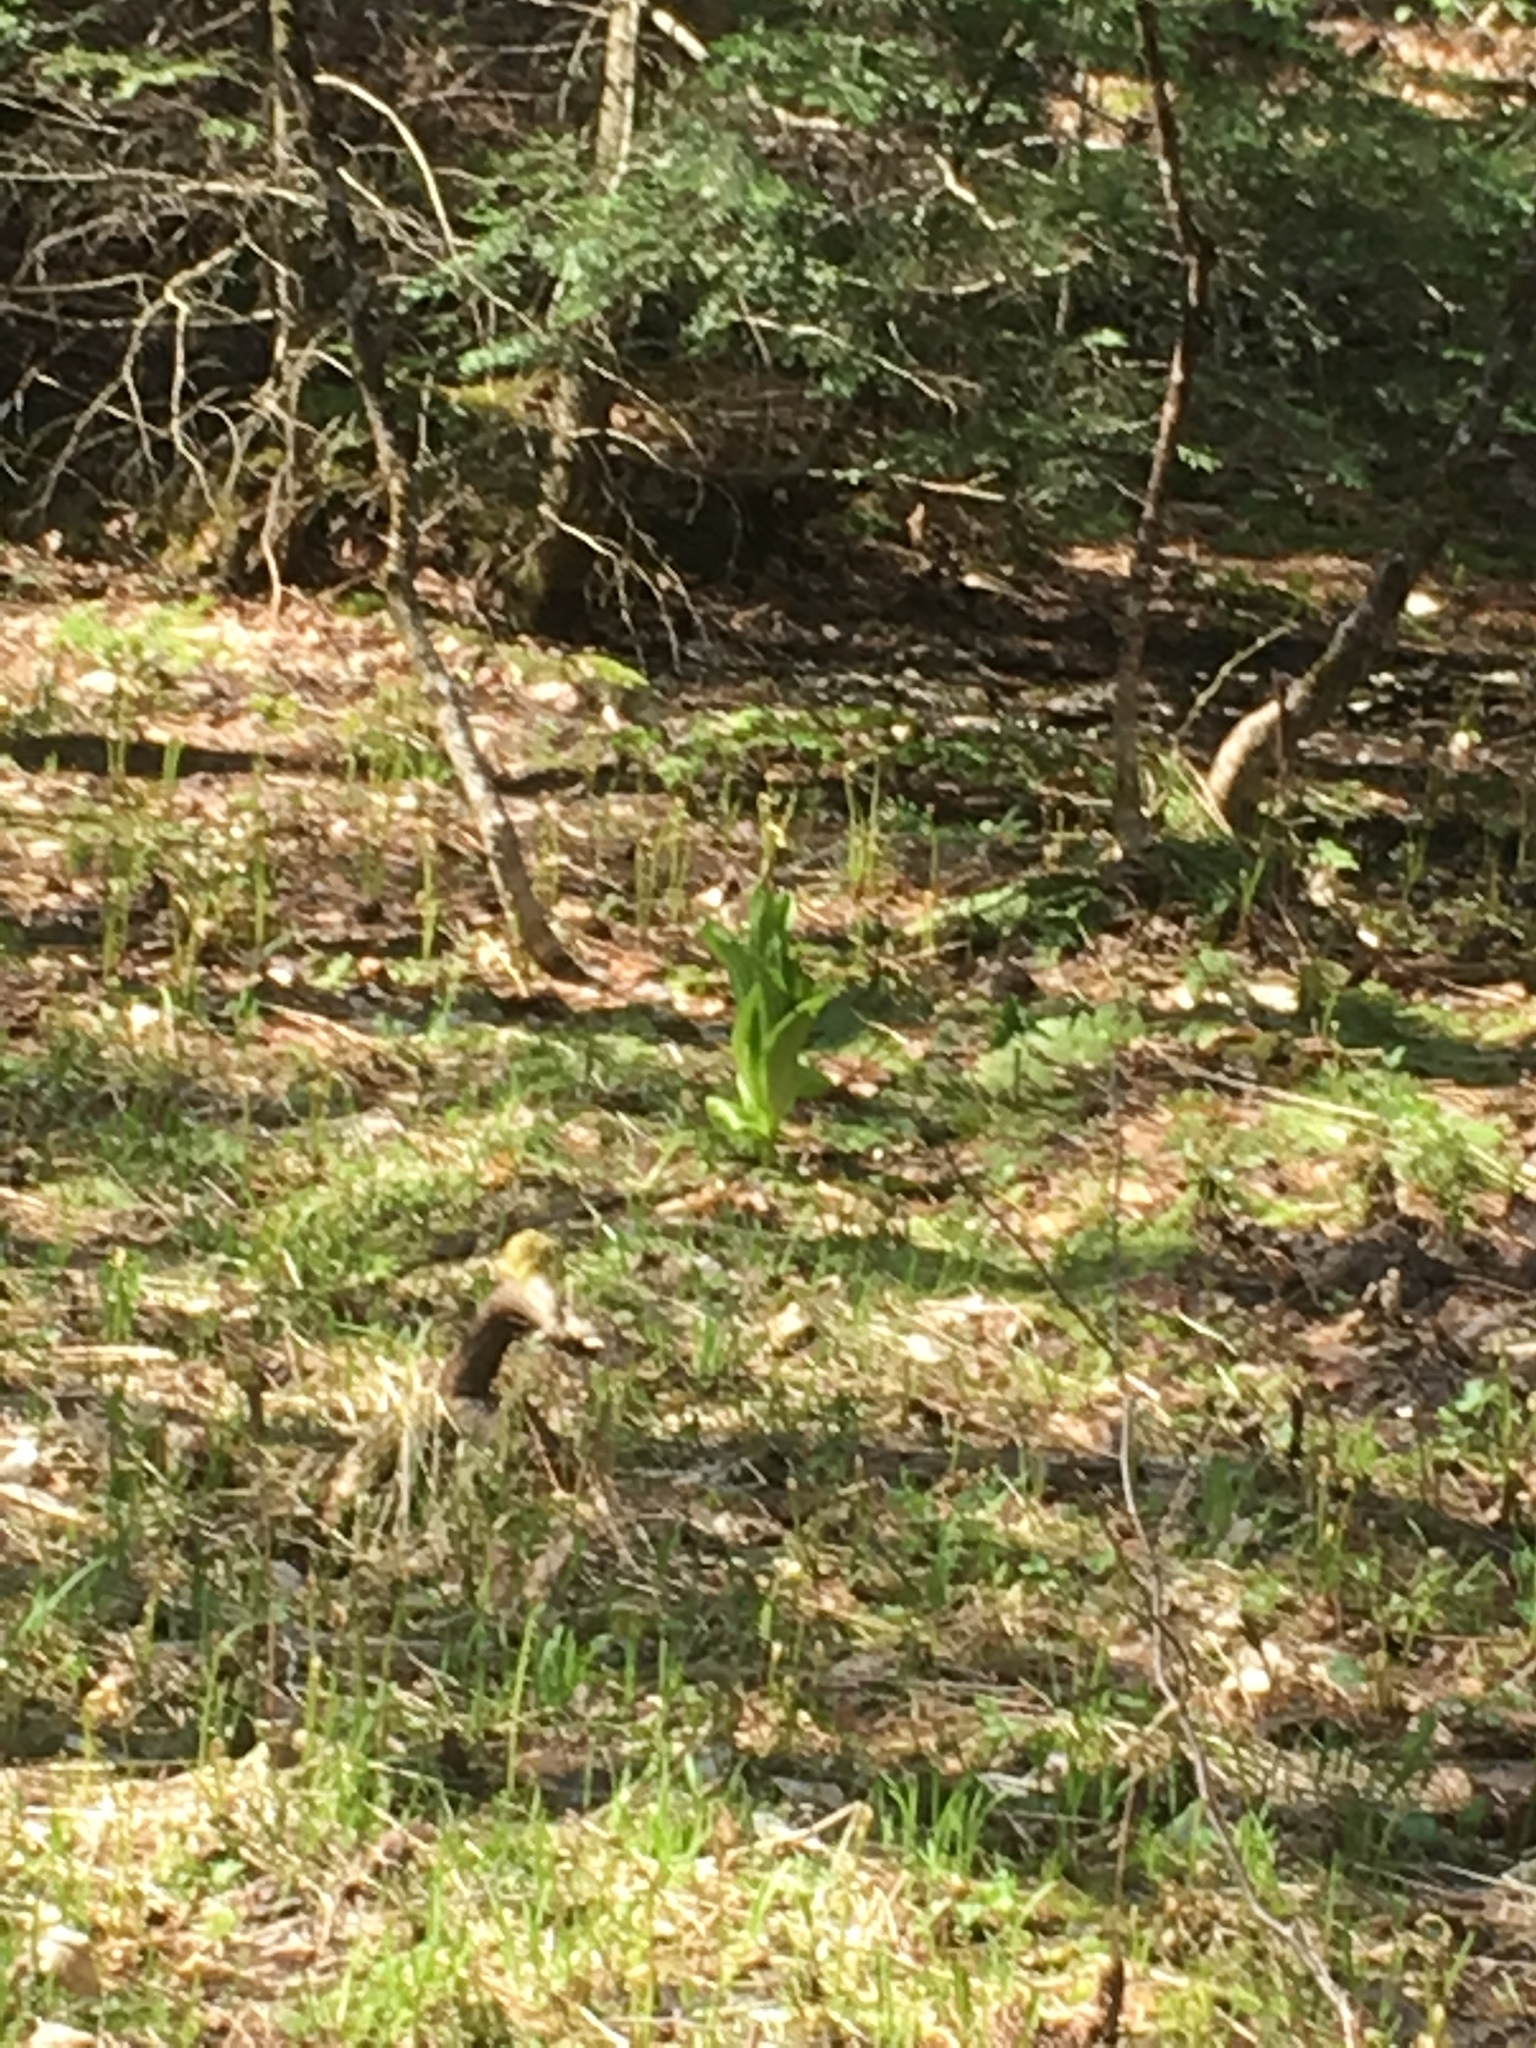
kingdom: Plantae
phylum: Tracheophyta
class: Liliopsida
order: Liliales
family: Melanthiaceae
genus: Veratrum
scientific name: Veratrum viride
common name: American false hellebore
